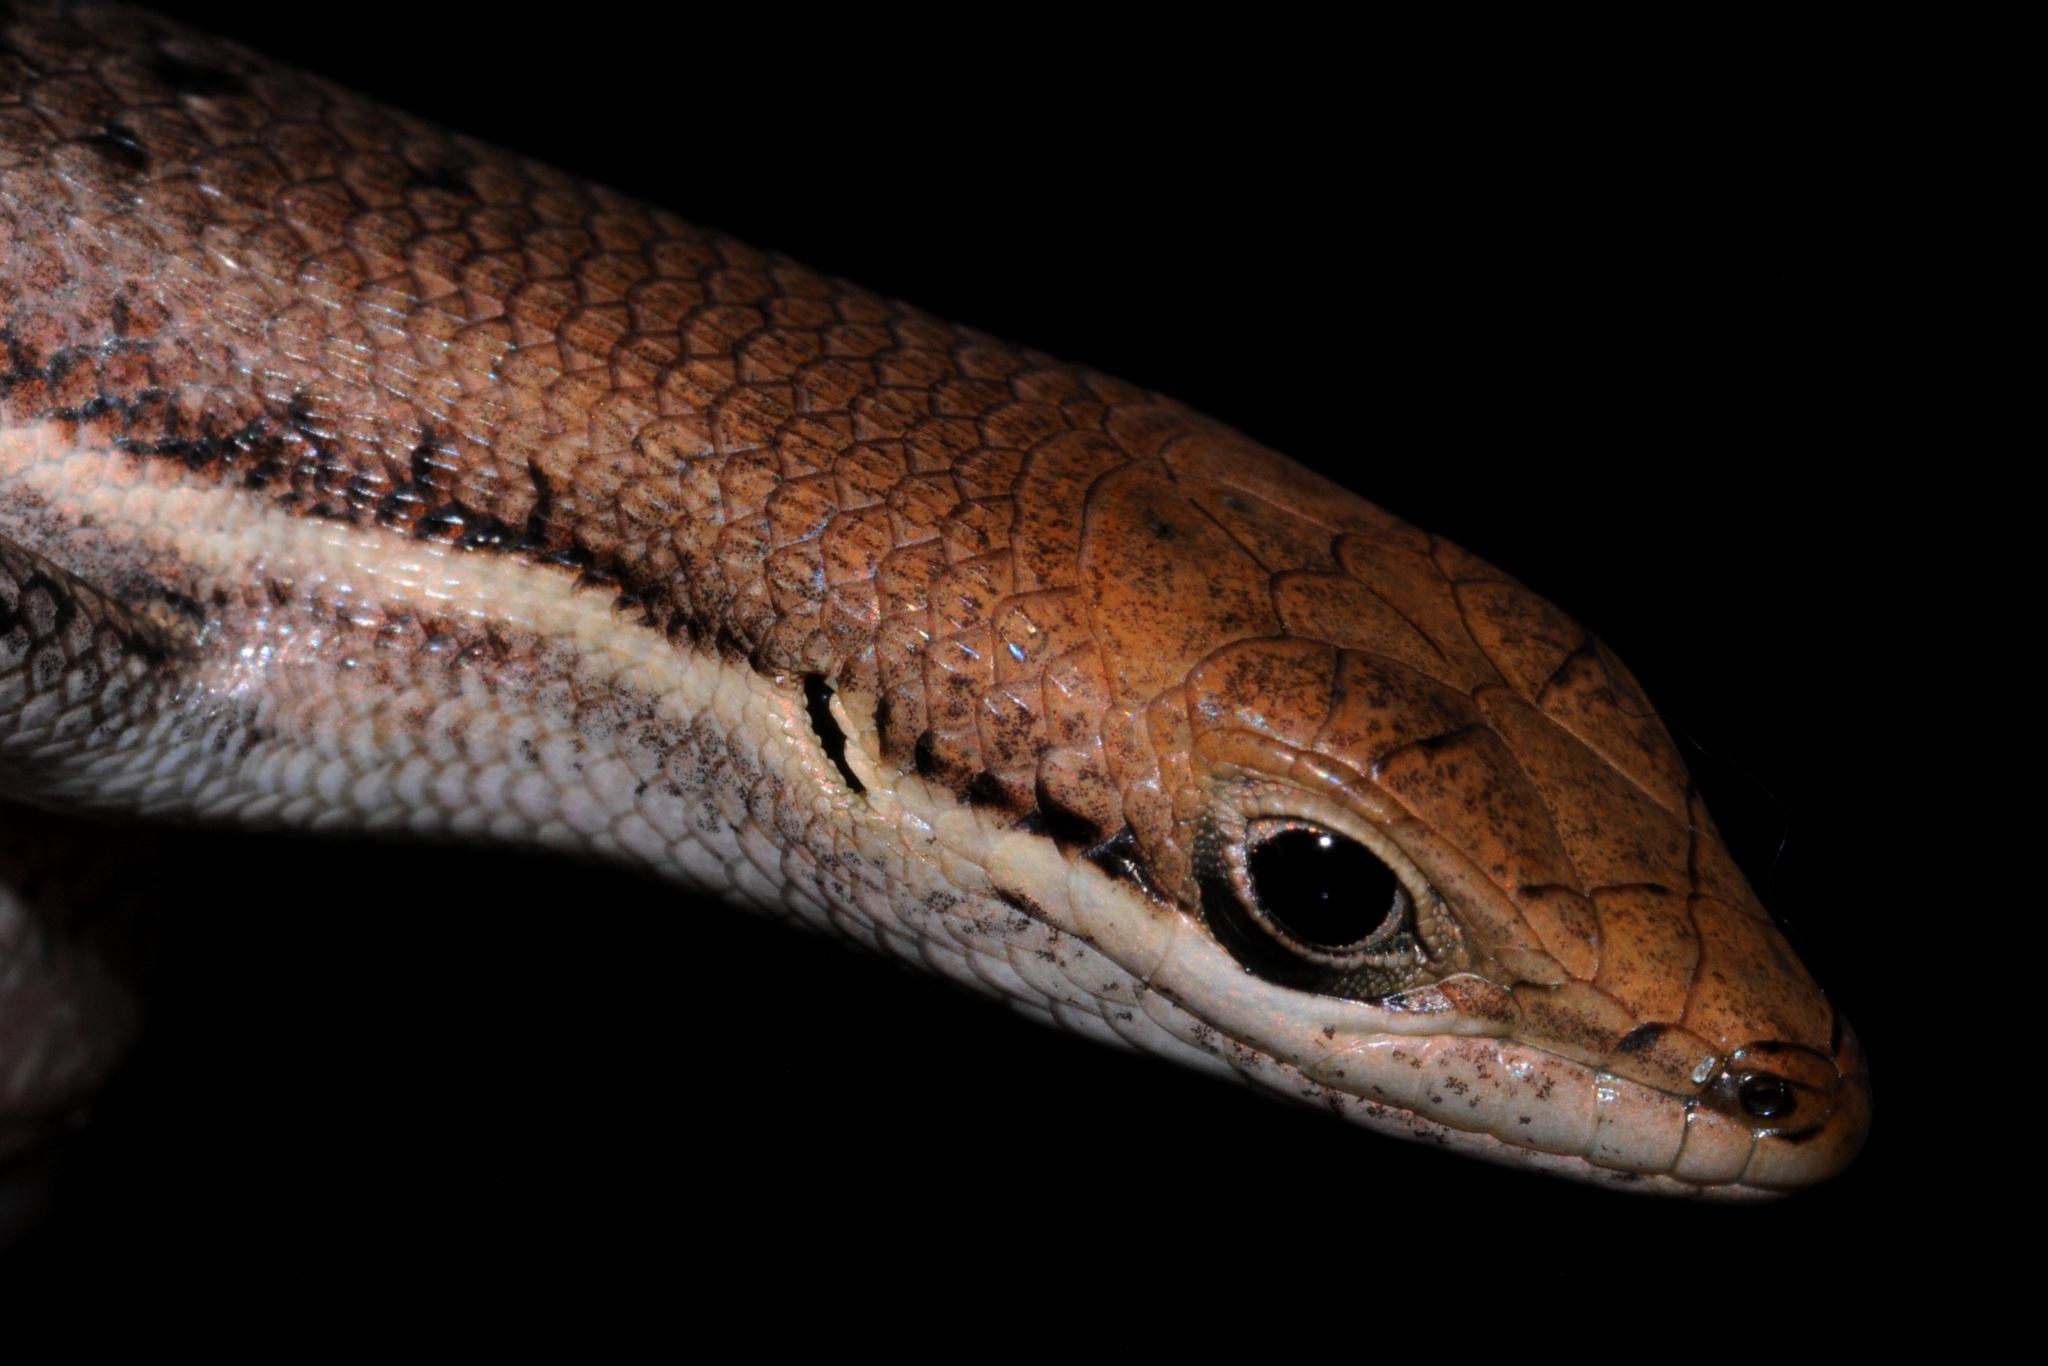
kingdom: Animalia
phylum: Chordata
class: Squamata
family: Scincidae
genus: Trachylepis
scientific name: Trachylepis varia
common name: Eastern variable skink
